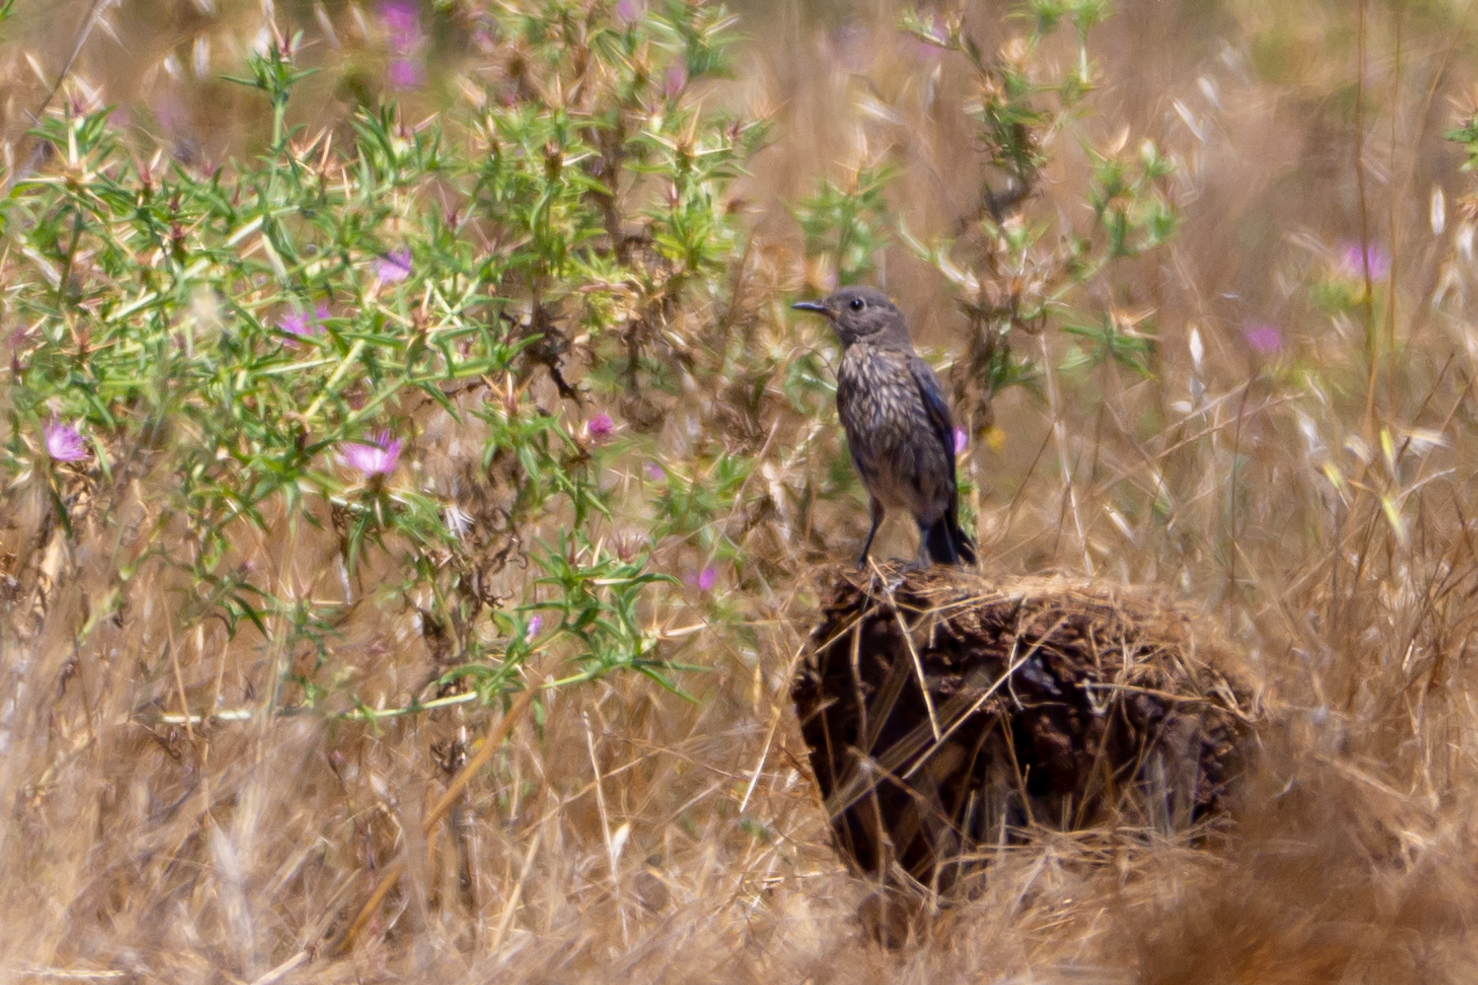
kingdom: Animalia
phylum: Chordata
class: Aves
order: Passeriformes
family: Turdidae
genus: Sialia
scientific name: Sialia mexicana
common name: Western bluebird
